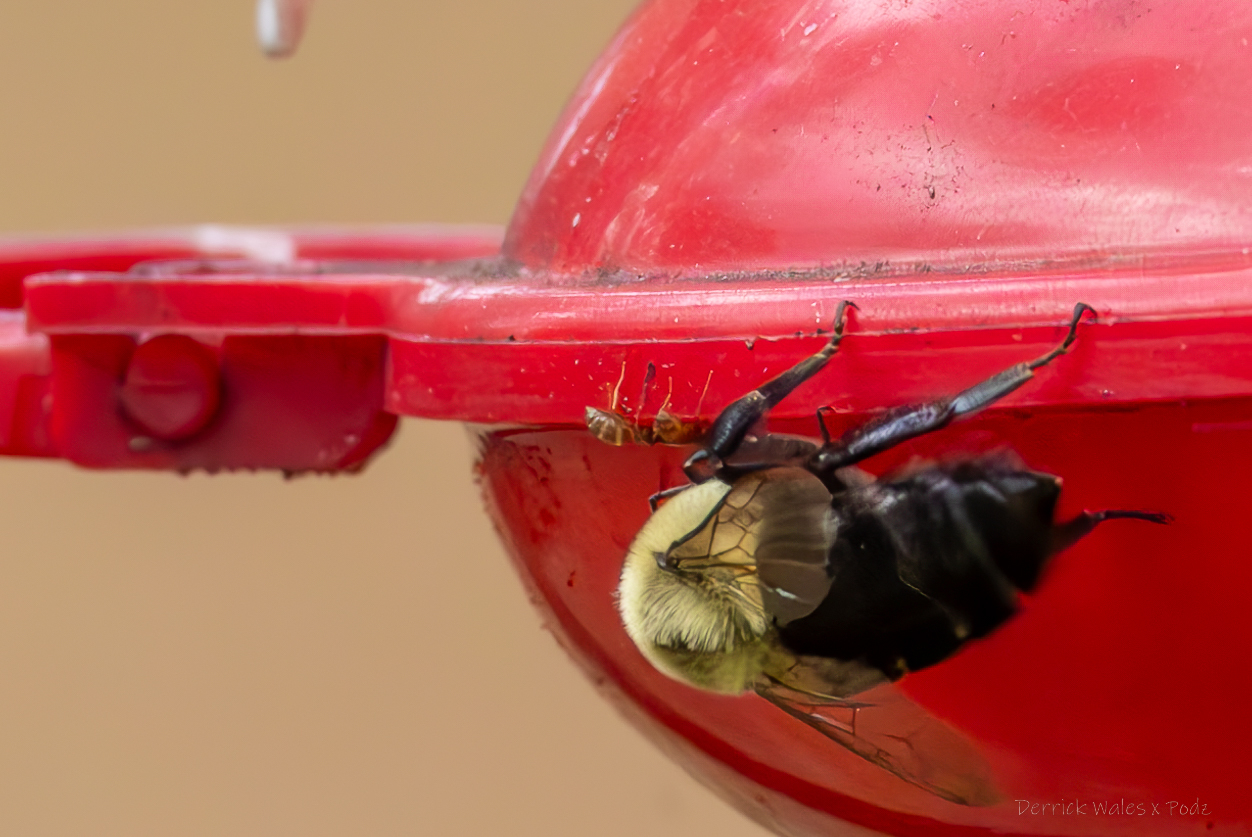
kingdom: Animalia
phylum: Arthropoda
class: Insecta
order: Hymenoptera
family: Apidae
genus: Bombus
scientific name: Bombus impatiens
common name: Common eastern bumble bee
